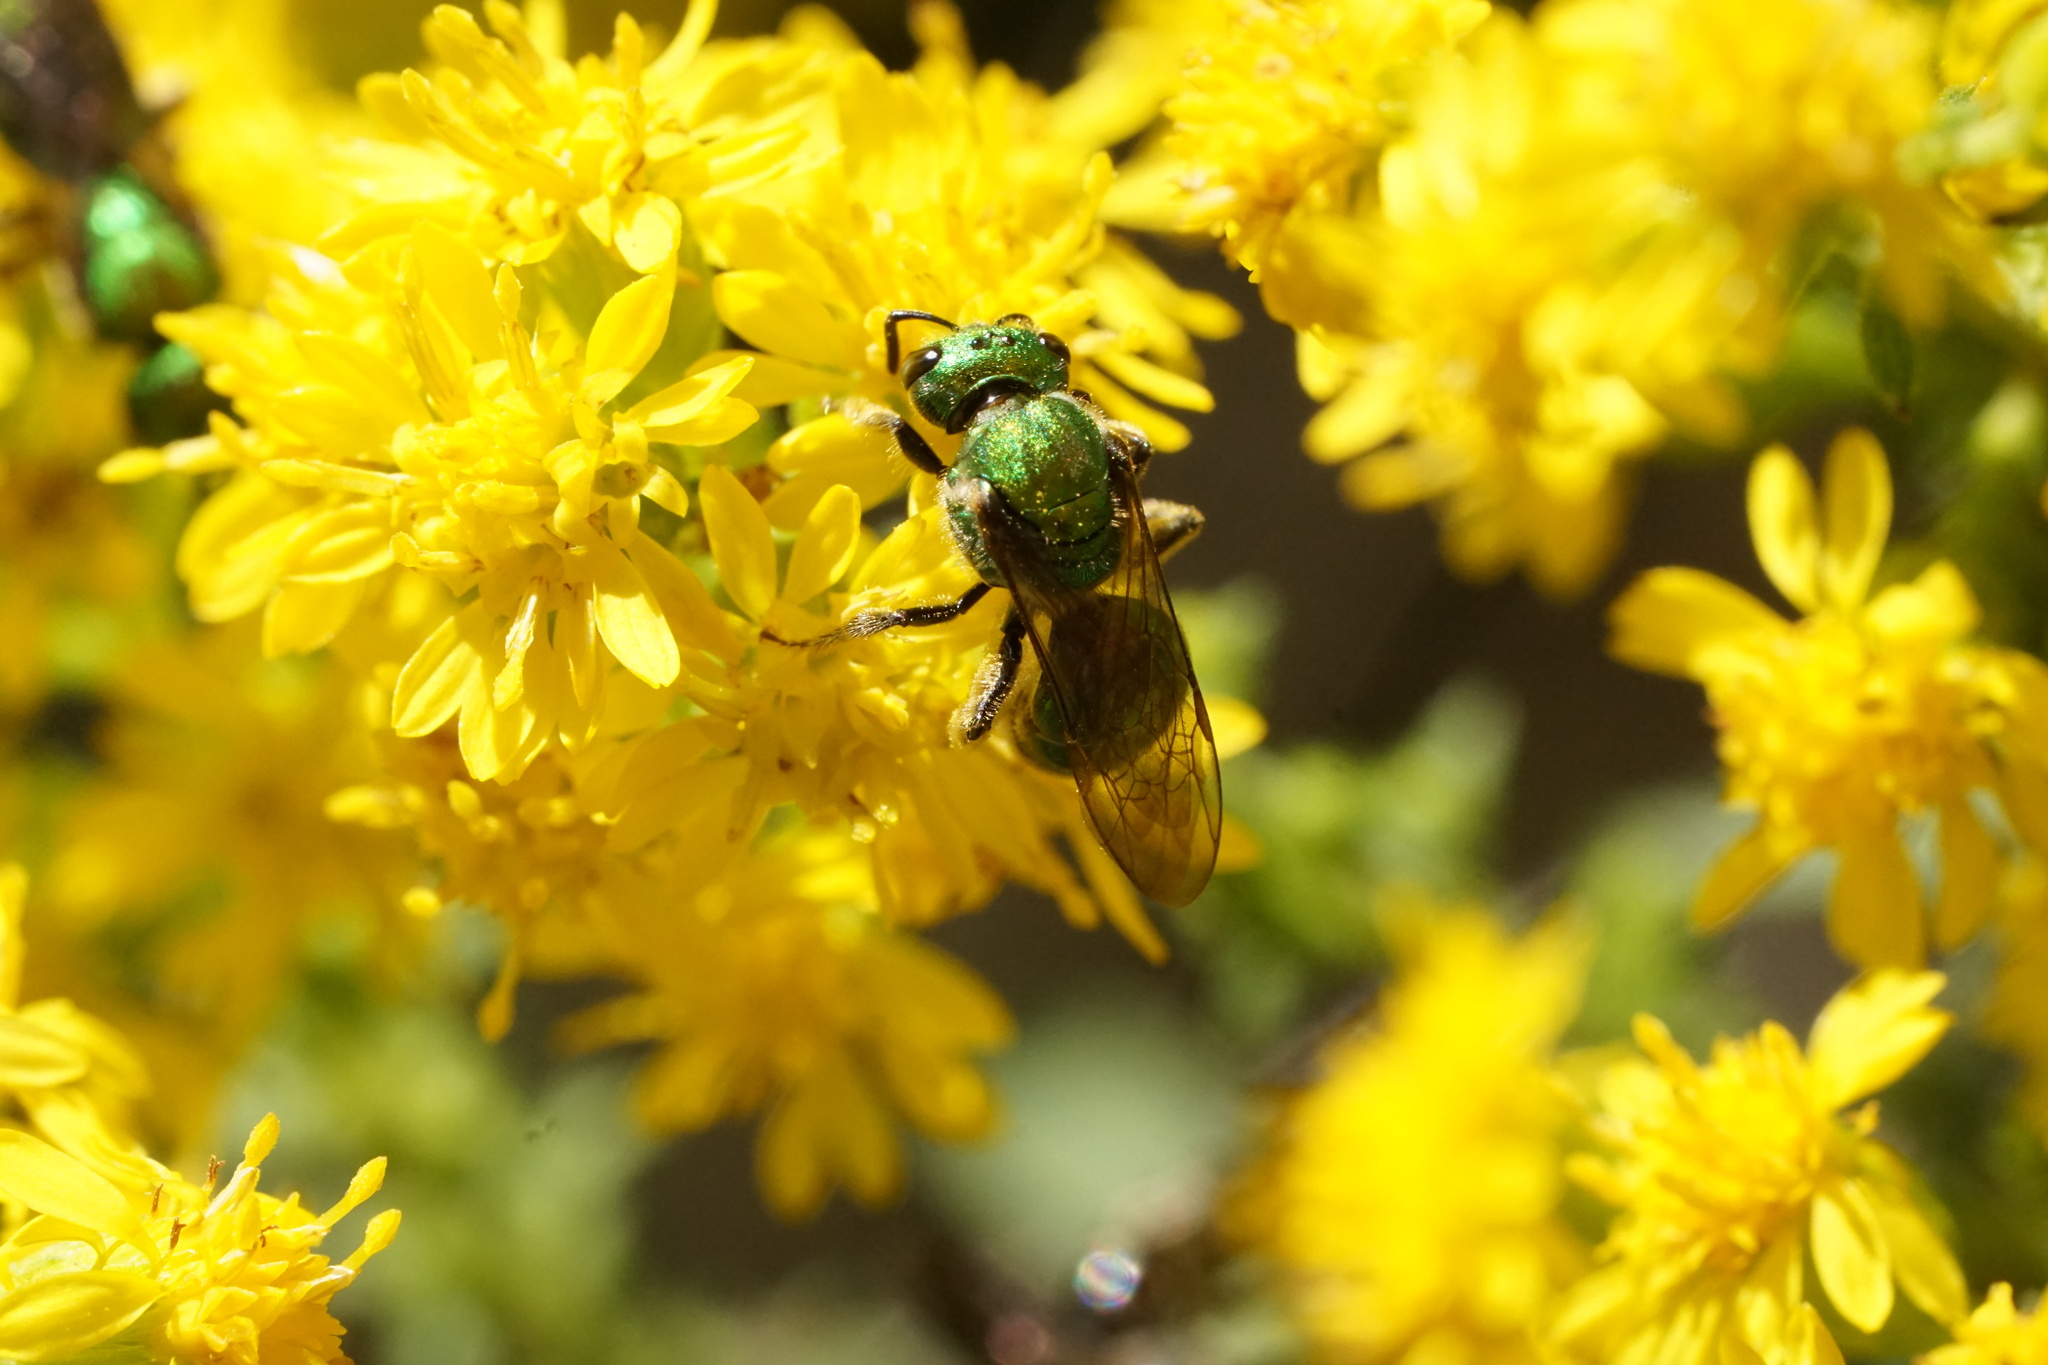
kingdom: Animalia
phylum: Arthropoda
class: Insecta
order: Hymenoptera
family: Halictidae
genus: Augochlora
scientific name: Augochlora pura
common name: Pure green sweat bee
